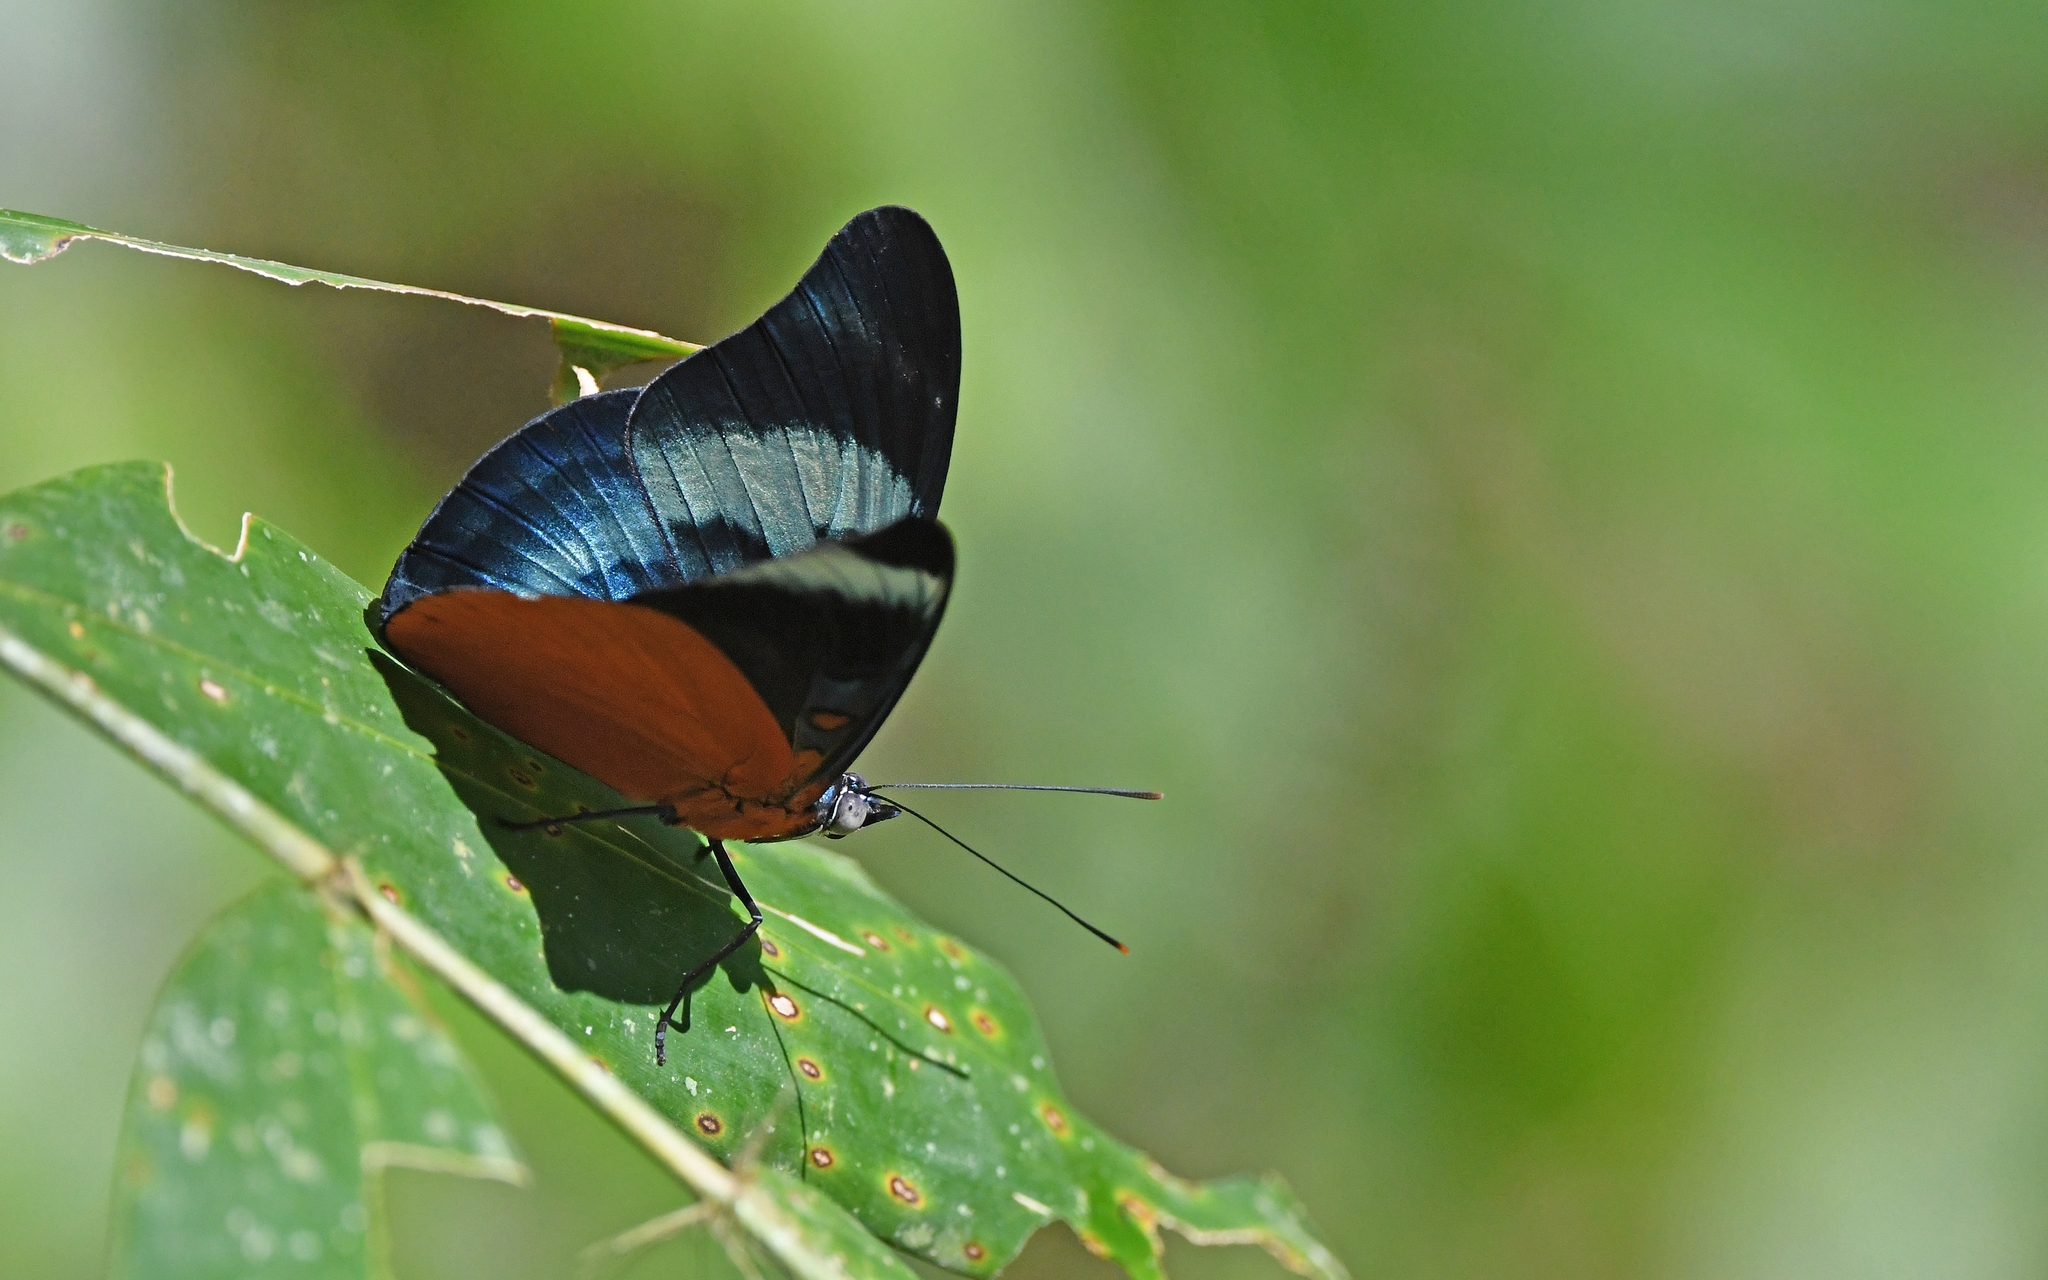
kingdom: Animalia
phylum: Arthropoda
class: Insecta
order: Lepidoptera
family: Nymphalidae
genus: Panacea
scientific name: Panacea prola
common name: Red flasher
